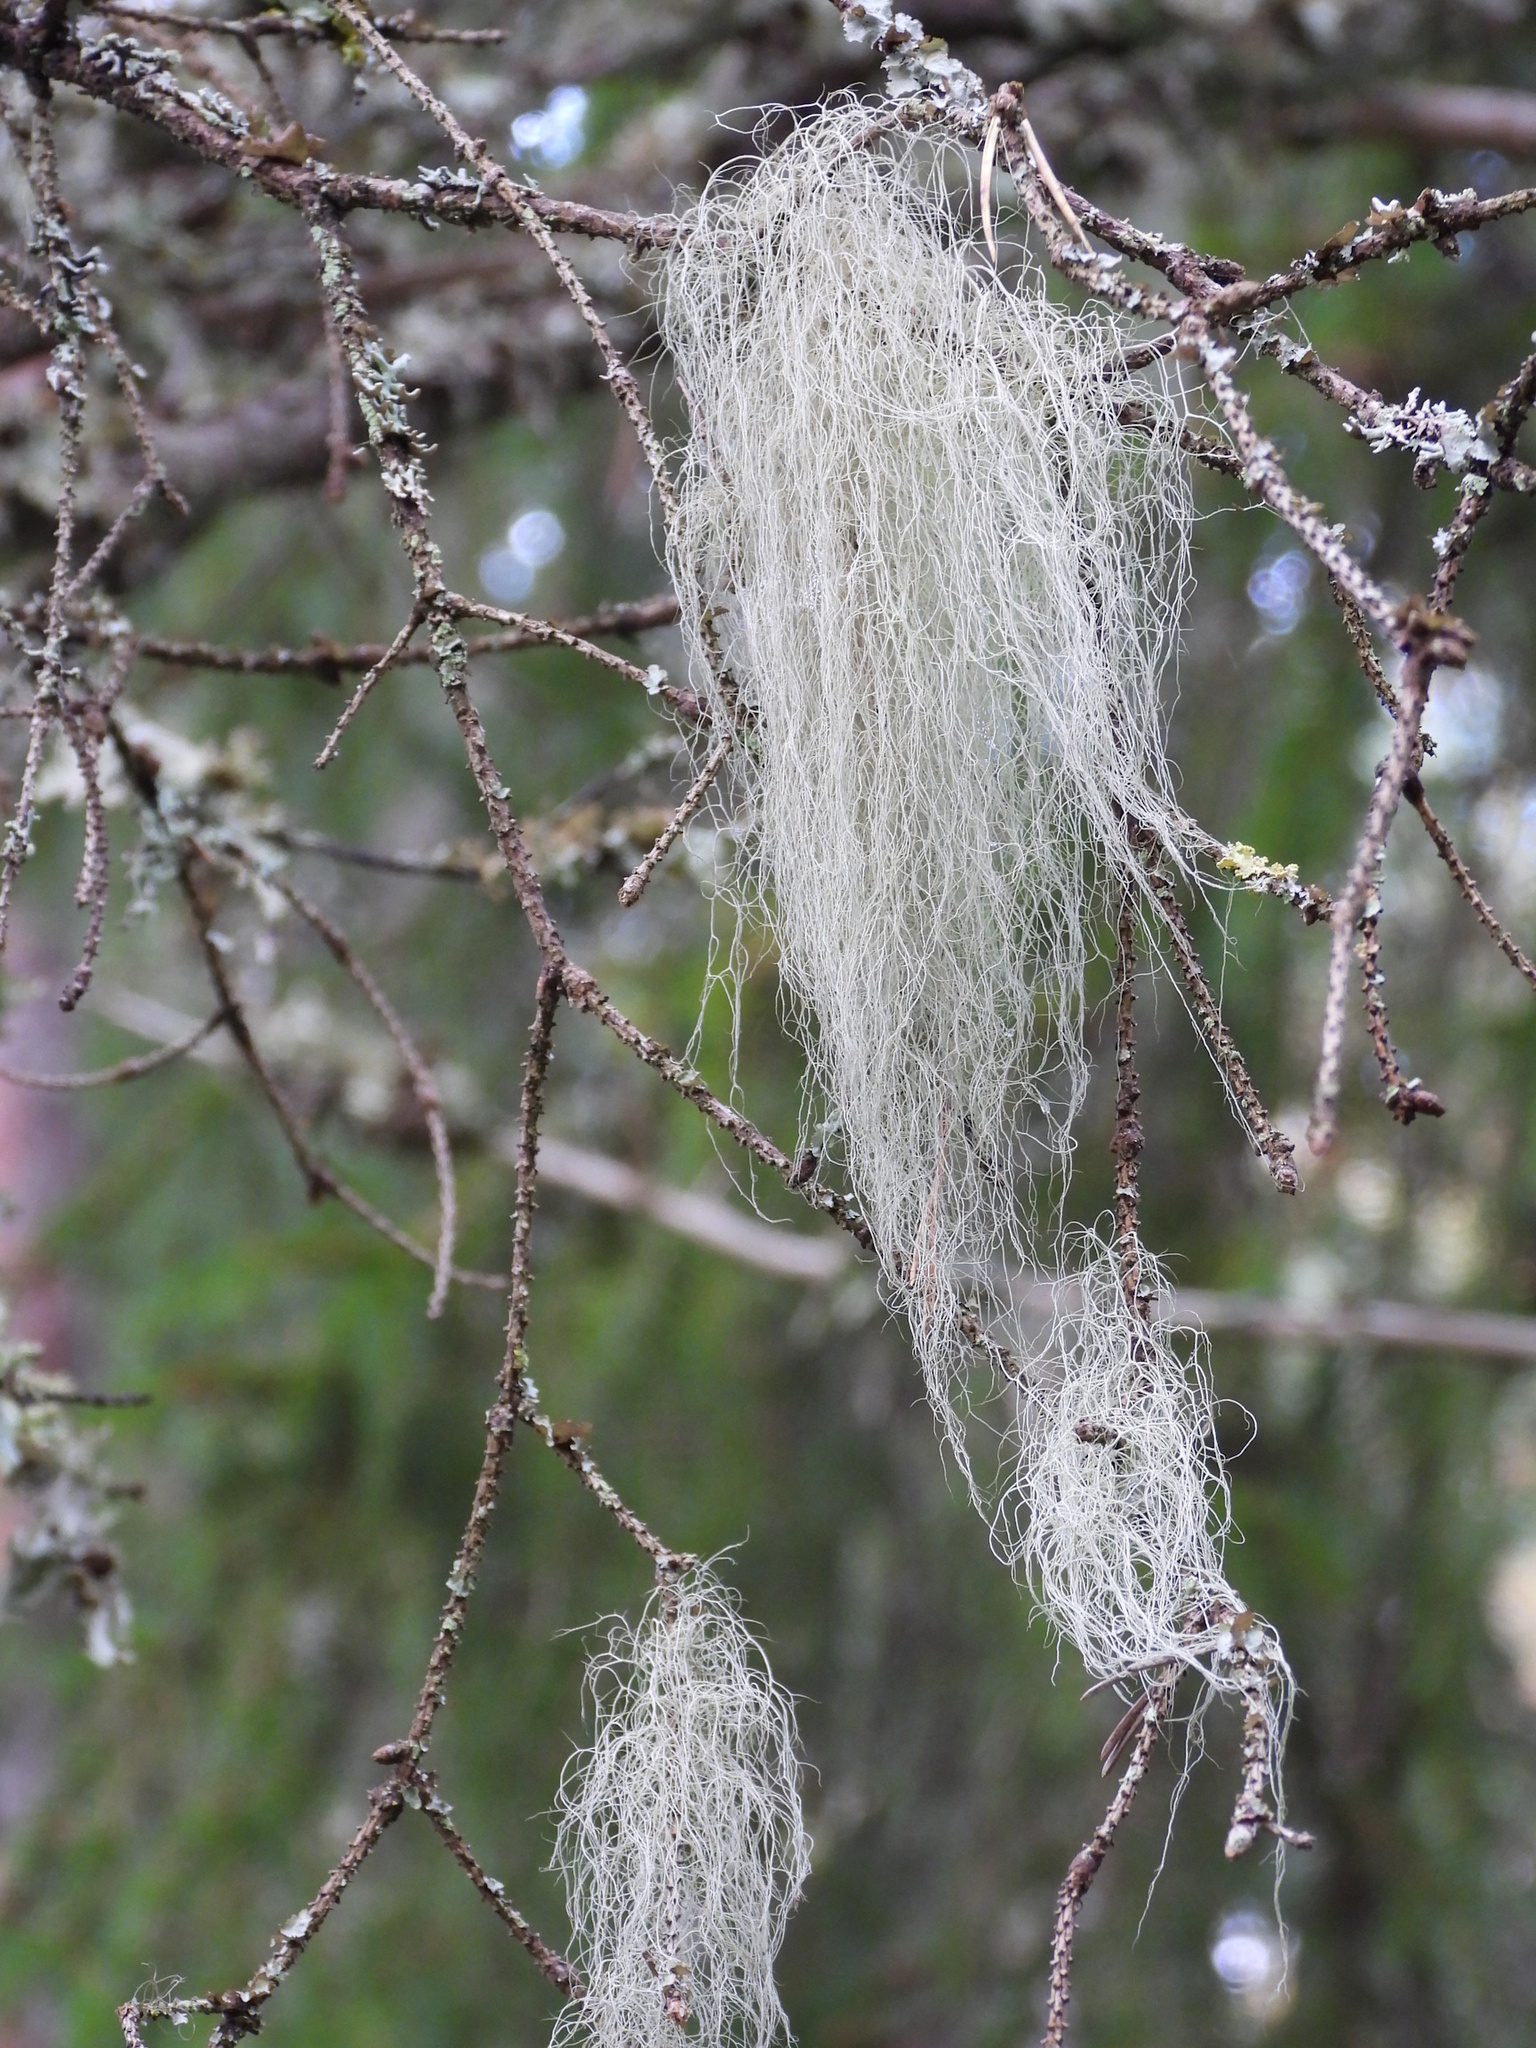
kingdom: Fungi
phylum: Ascomycota
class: Lecanoromycetes
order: Lecanorales
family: Parmeliaceae
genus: Bryoria
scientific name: Bryoria fuscescens
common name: Pale-footed horsehair lichen
